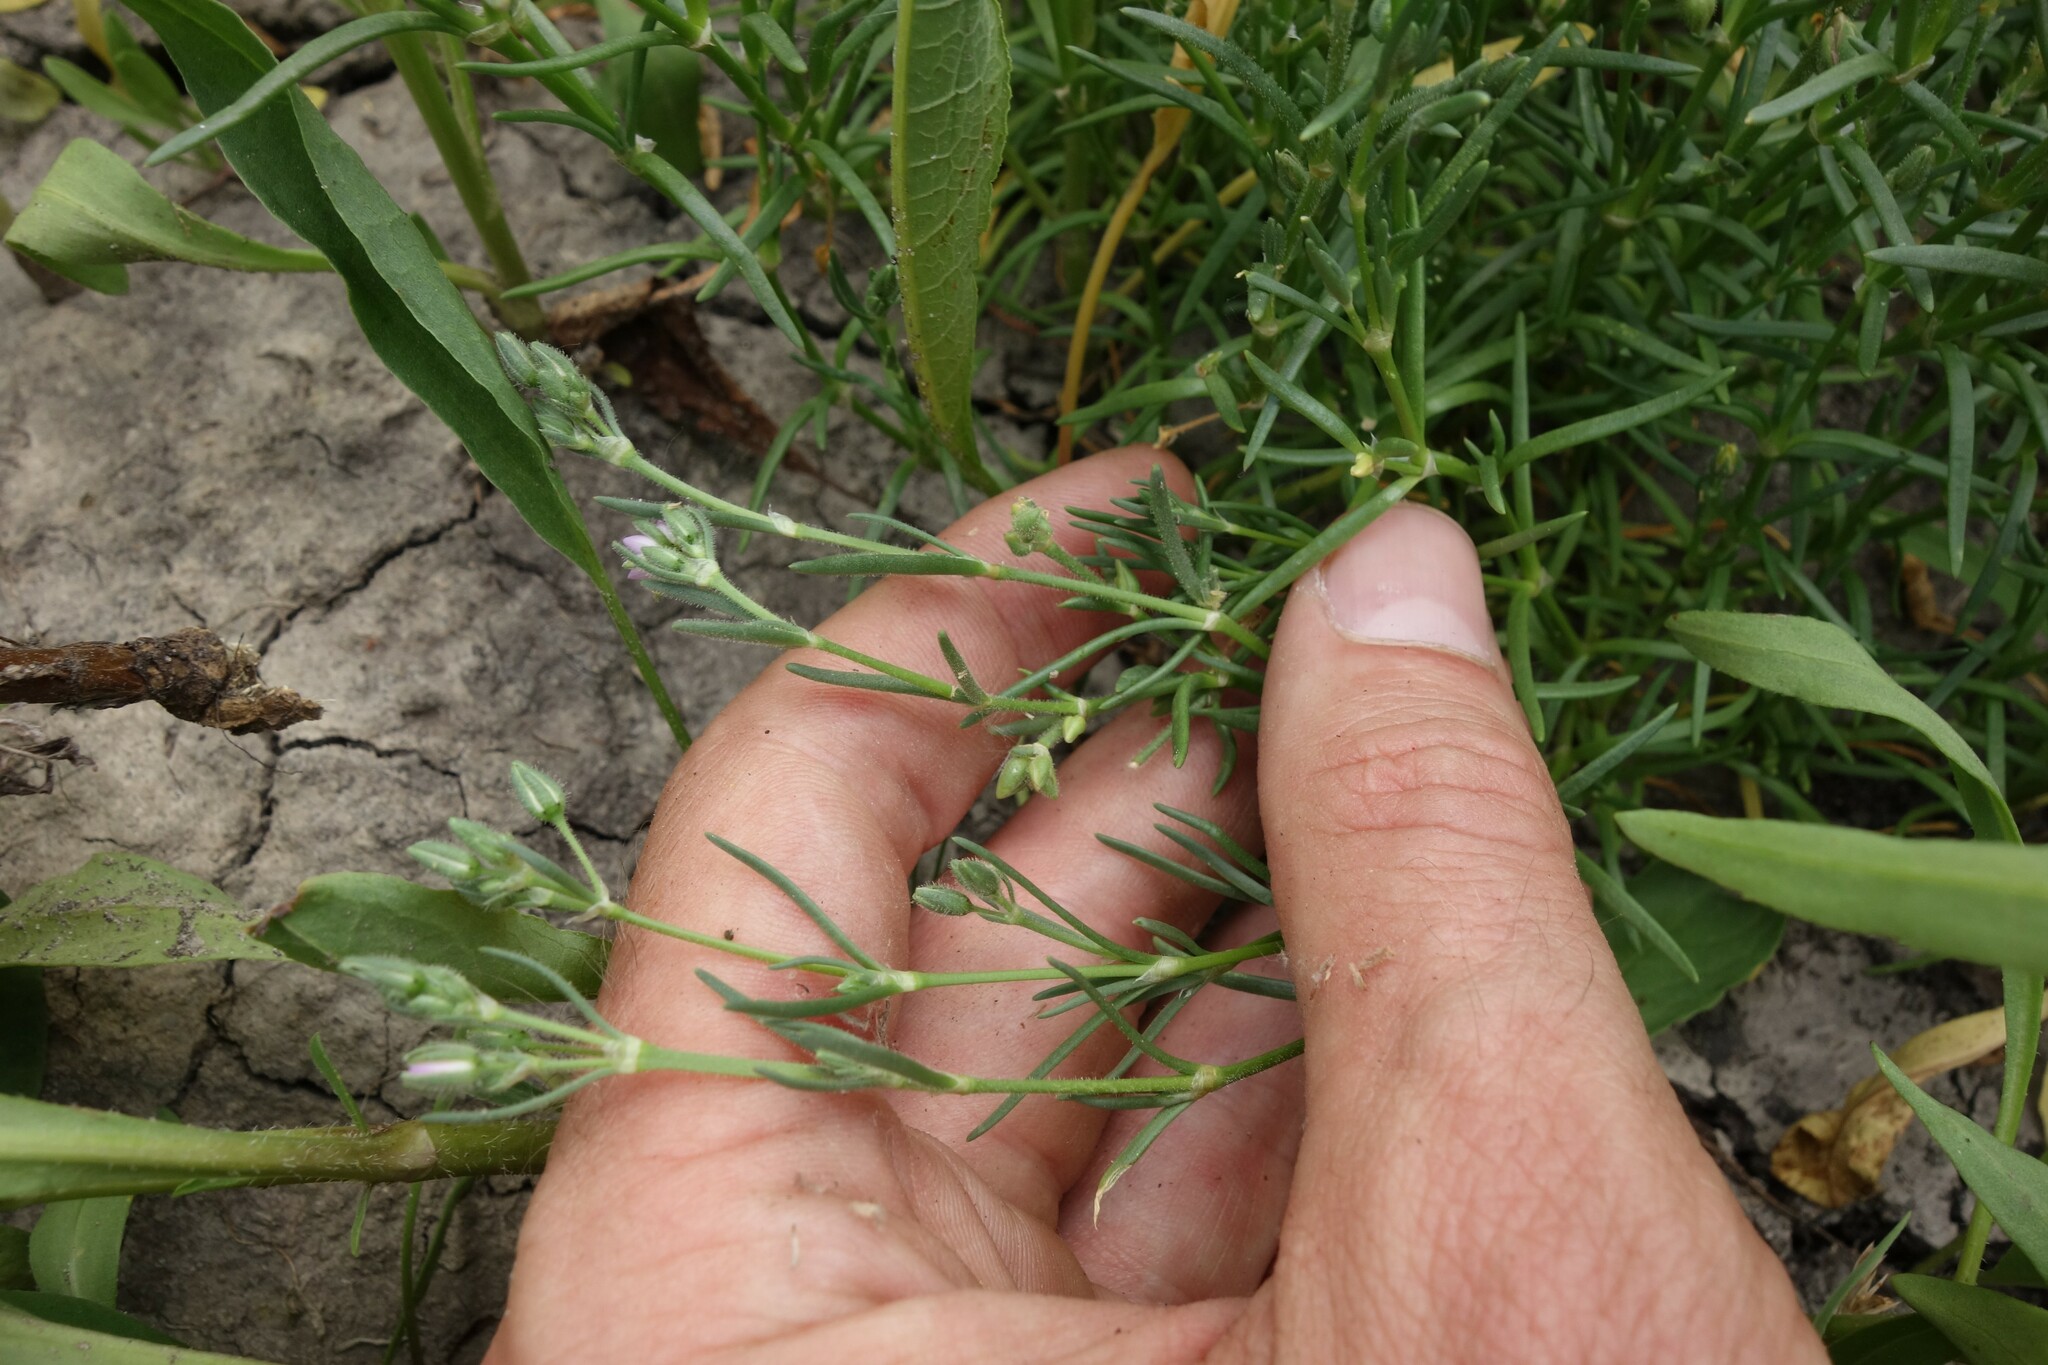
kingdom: Plantae
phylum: Tracheophyta
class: Magnoliopsida
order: Caryophyllales
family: Caryophyllaceae
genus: Spergularia
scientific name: Spergularia marina
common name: Lesser sea-spurrey
